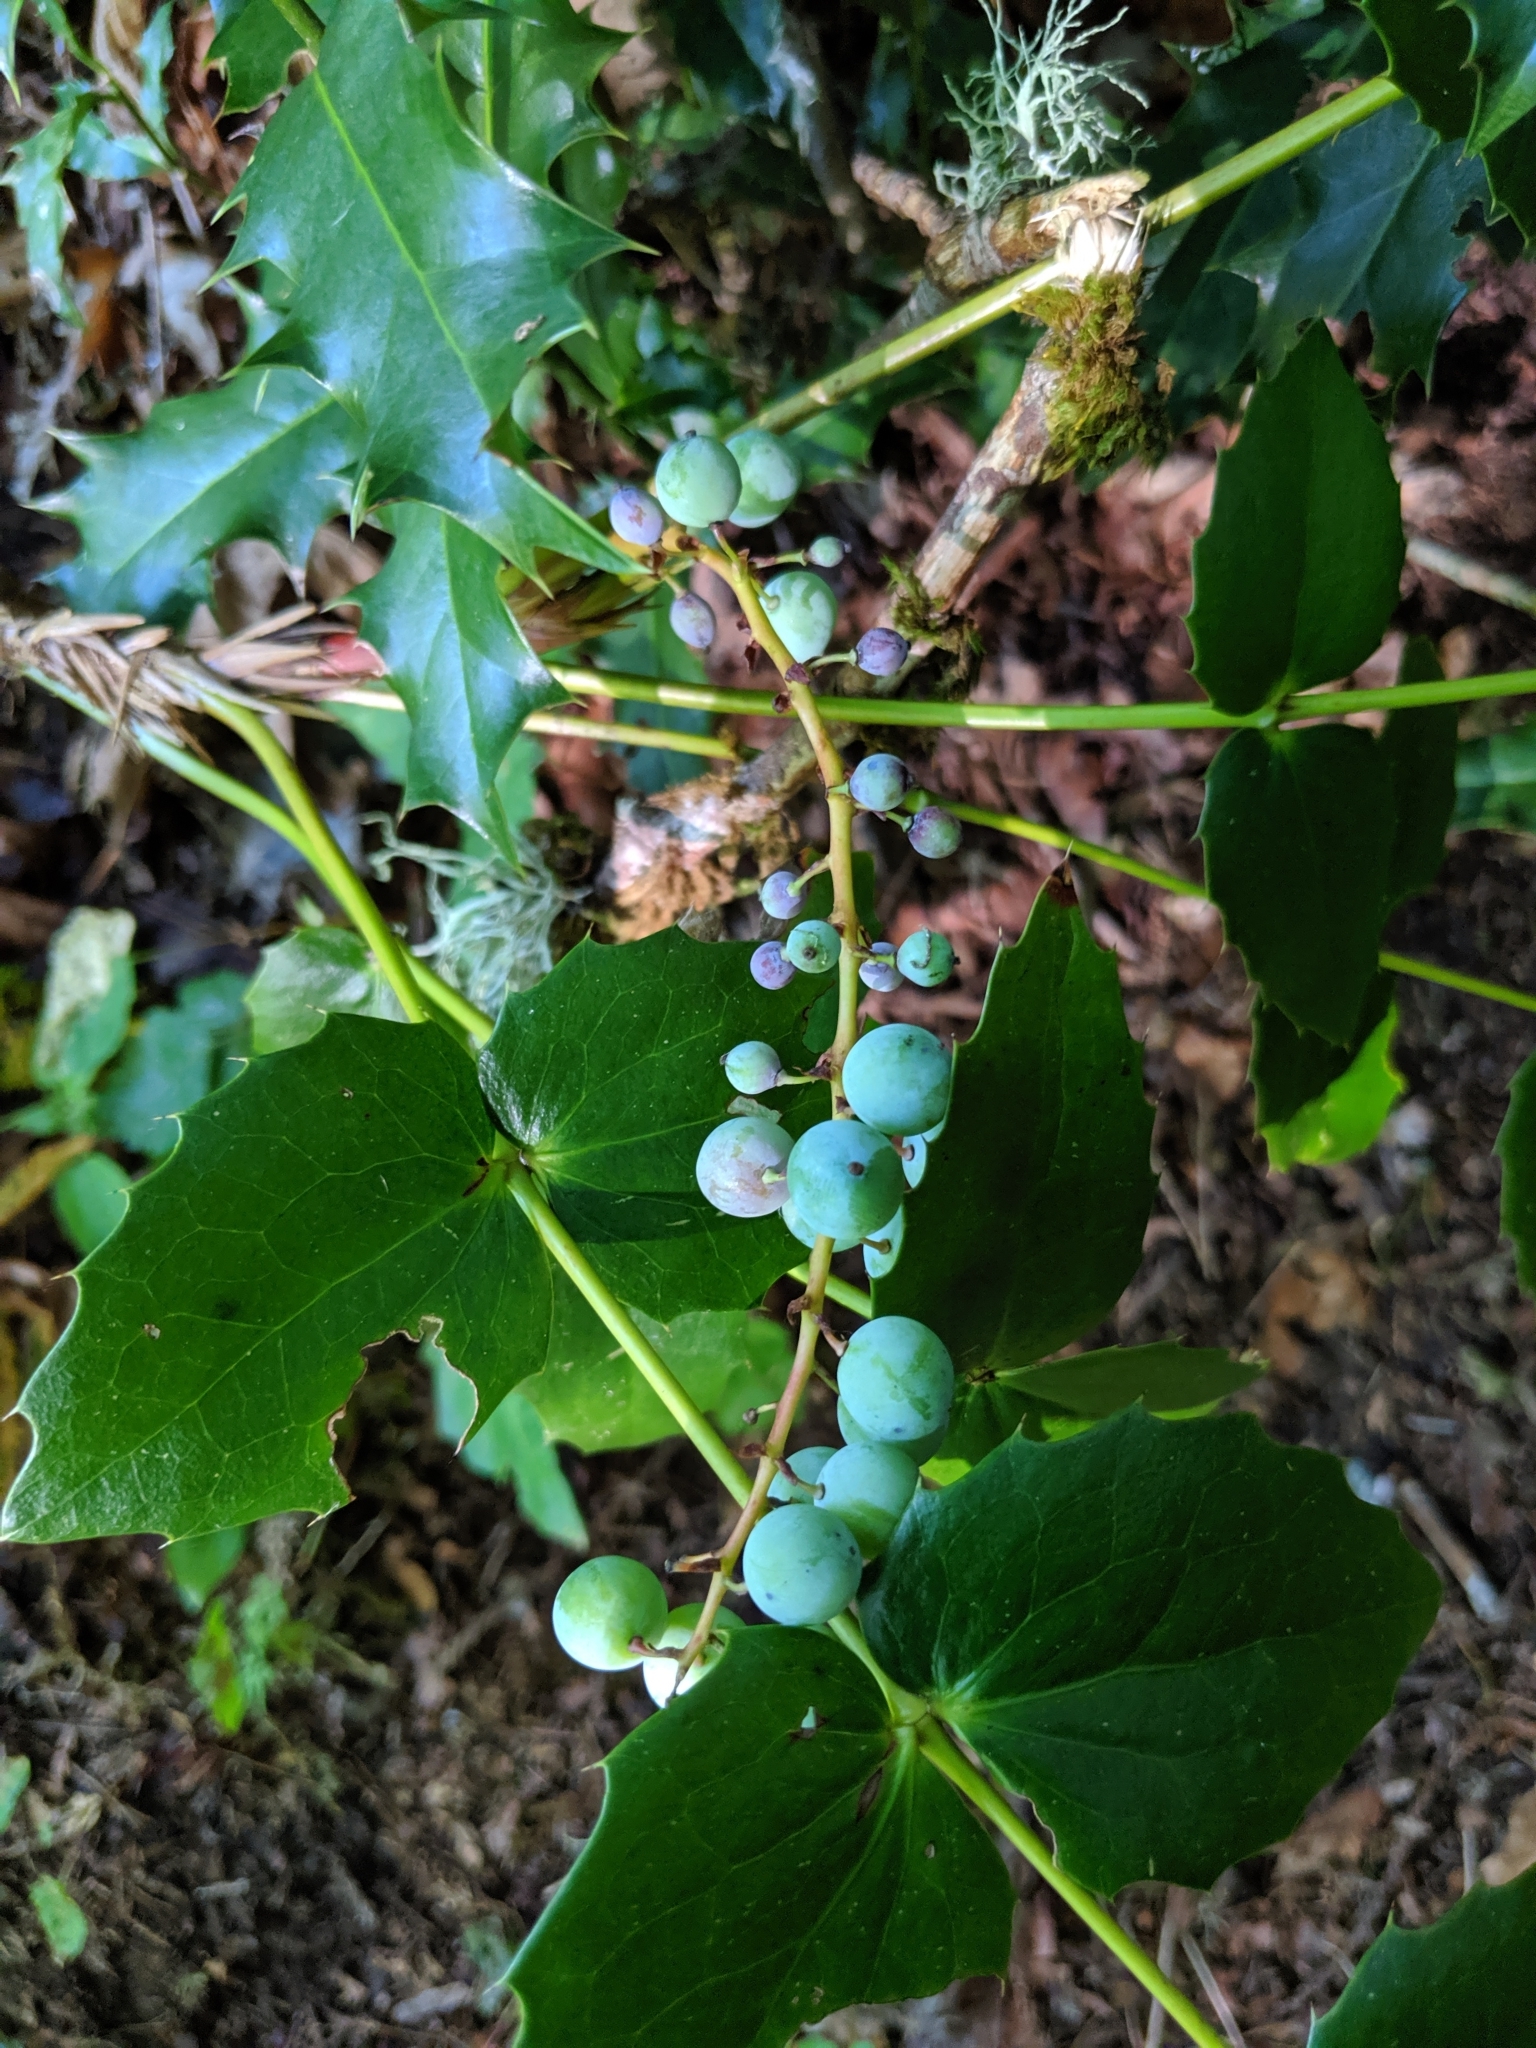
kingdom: Plantae
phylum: Tracheophyta
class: Magnoliopsida
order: Ranunculales
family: Berberidaceae
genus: Mahonia
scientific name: Mahonia nervosa
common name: Cascade oregon-grape
